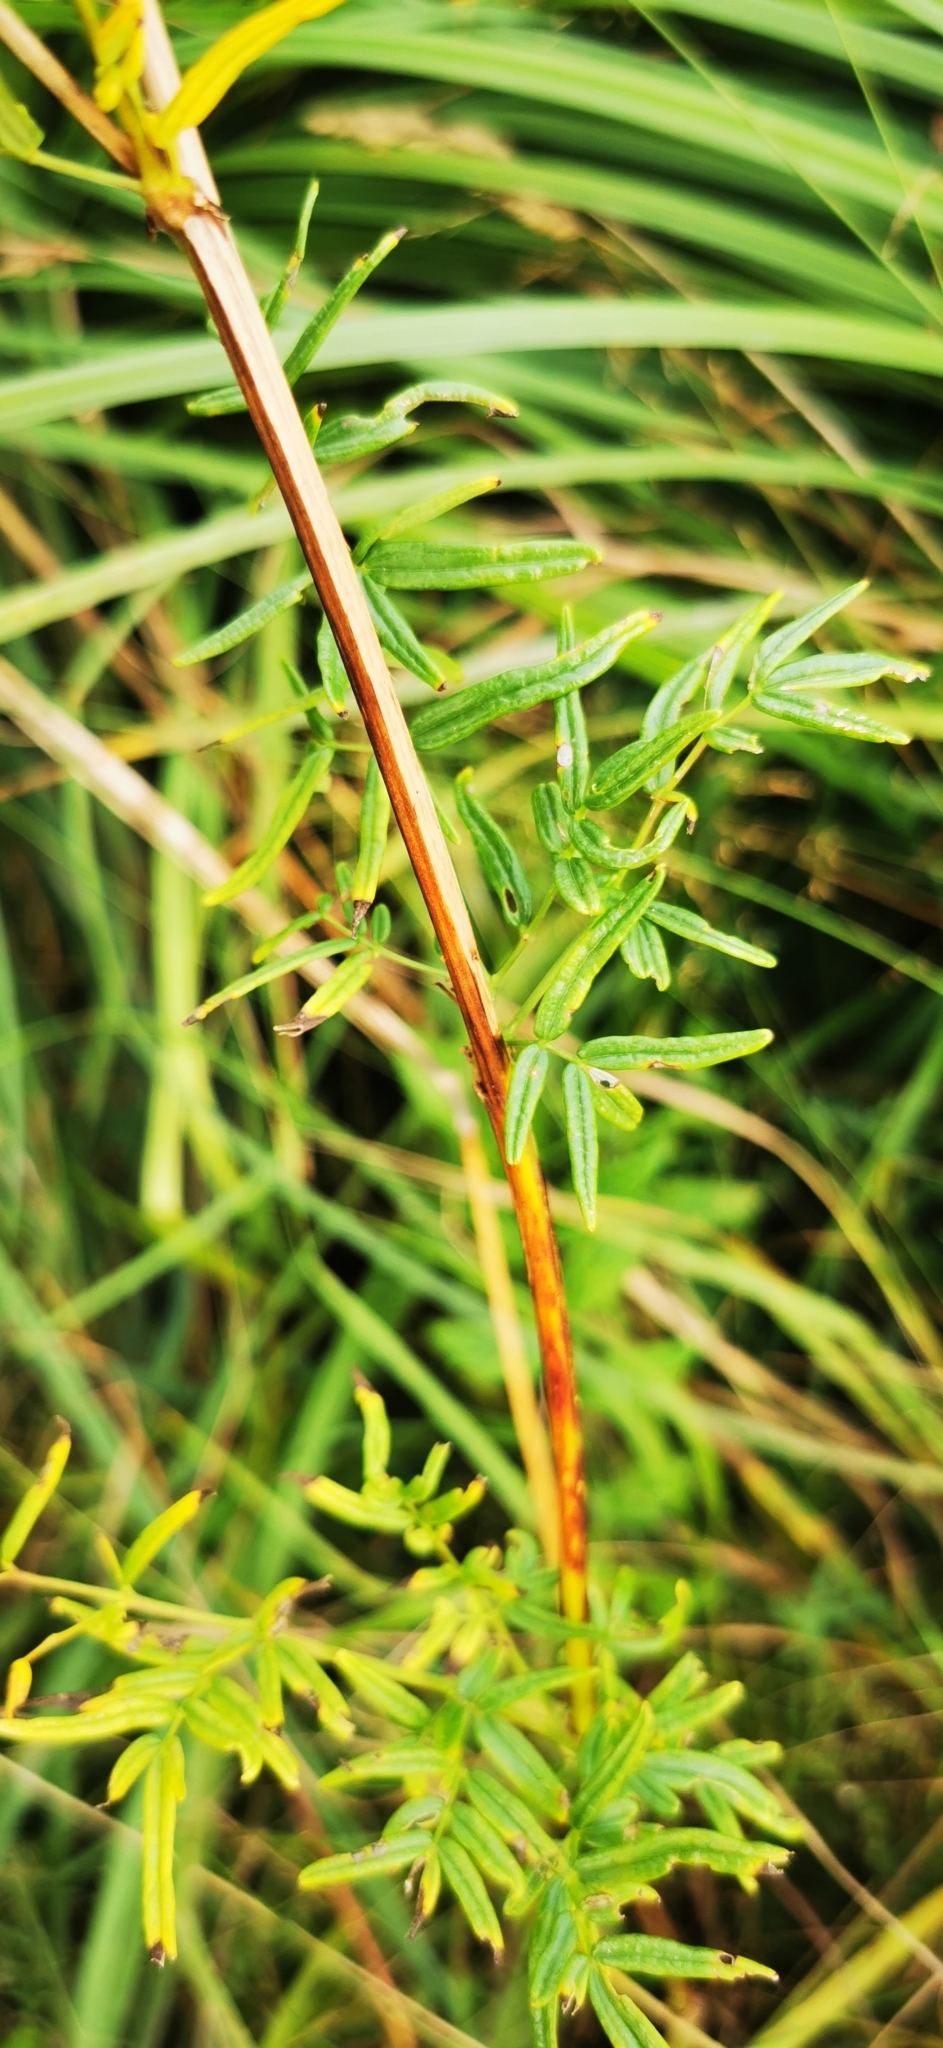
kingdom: Plantae
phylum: Tracheophyta
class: Magnoliopsida
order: Ranunculales
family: Ranunculaceae
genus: Thalictrum
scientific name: Thalictrum lucidum
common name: Shining meadow-rue
